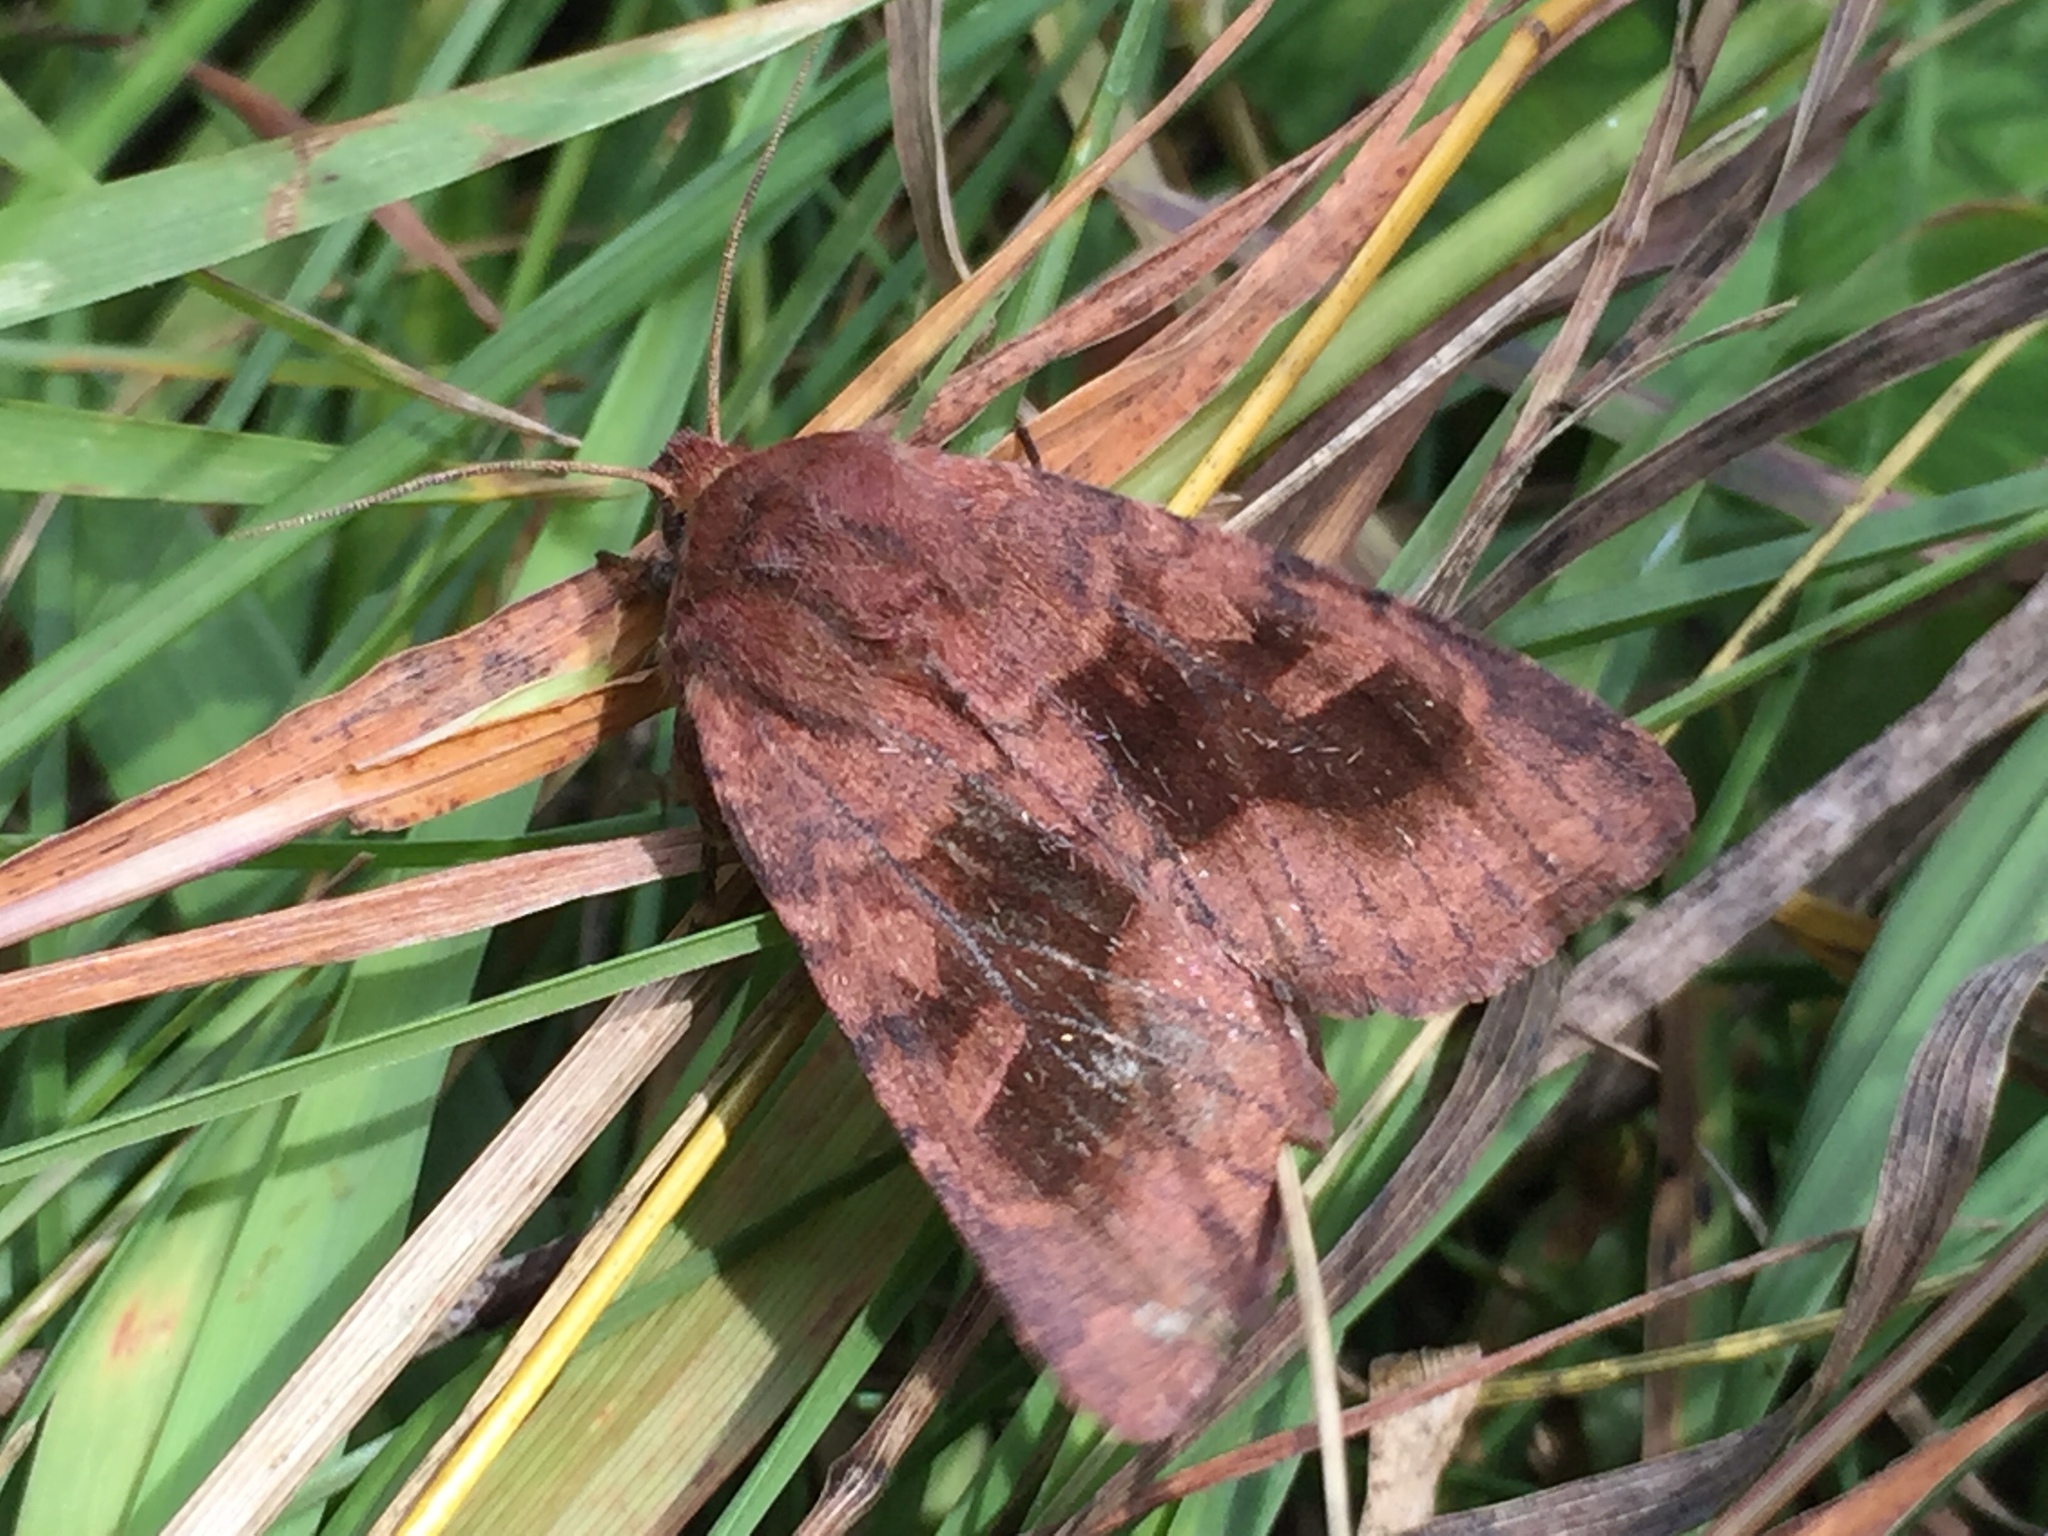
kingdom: Animalia
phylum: Arthropoda
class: Insecta
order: Lepidoptera
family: Noctuidae
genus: Nephelodes
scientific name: Nephelodes minians
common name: Bronzed cutworm
